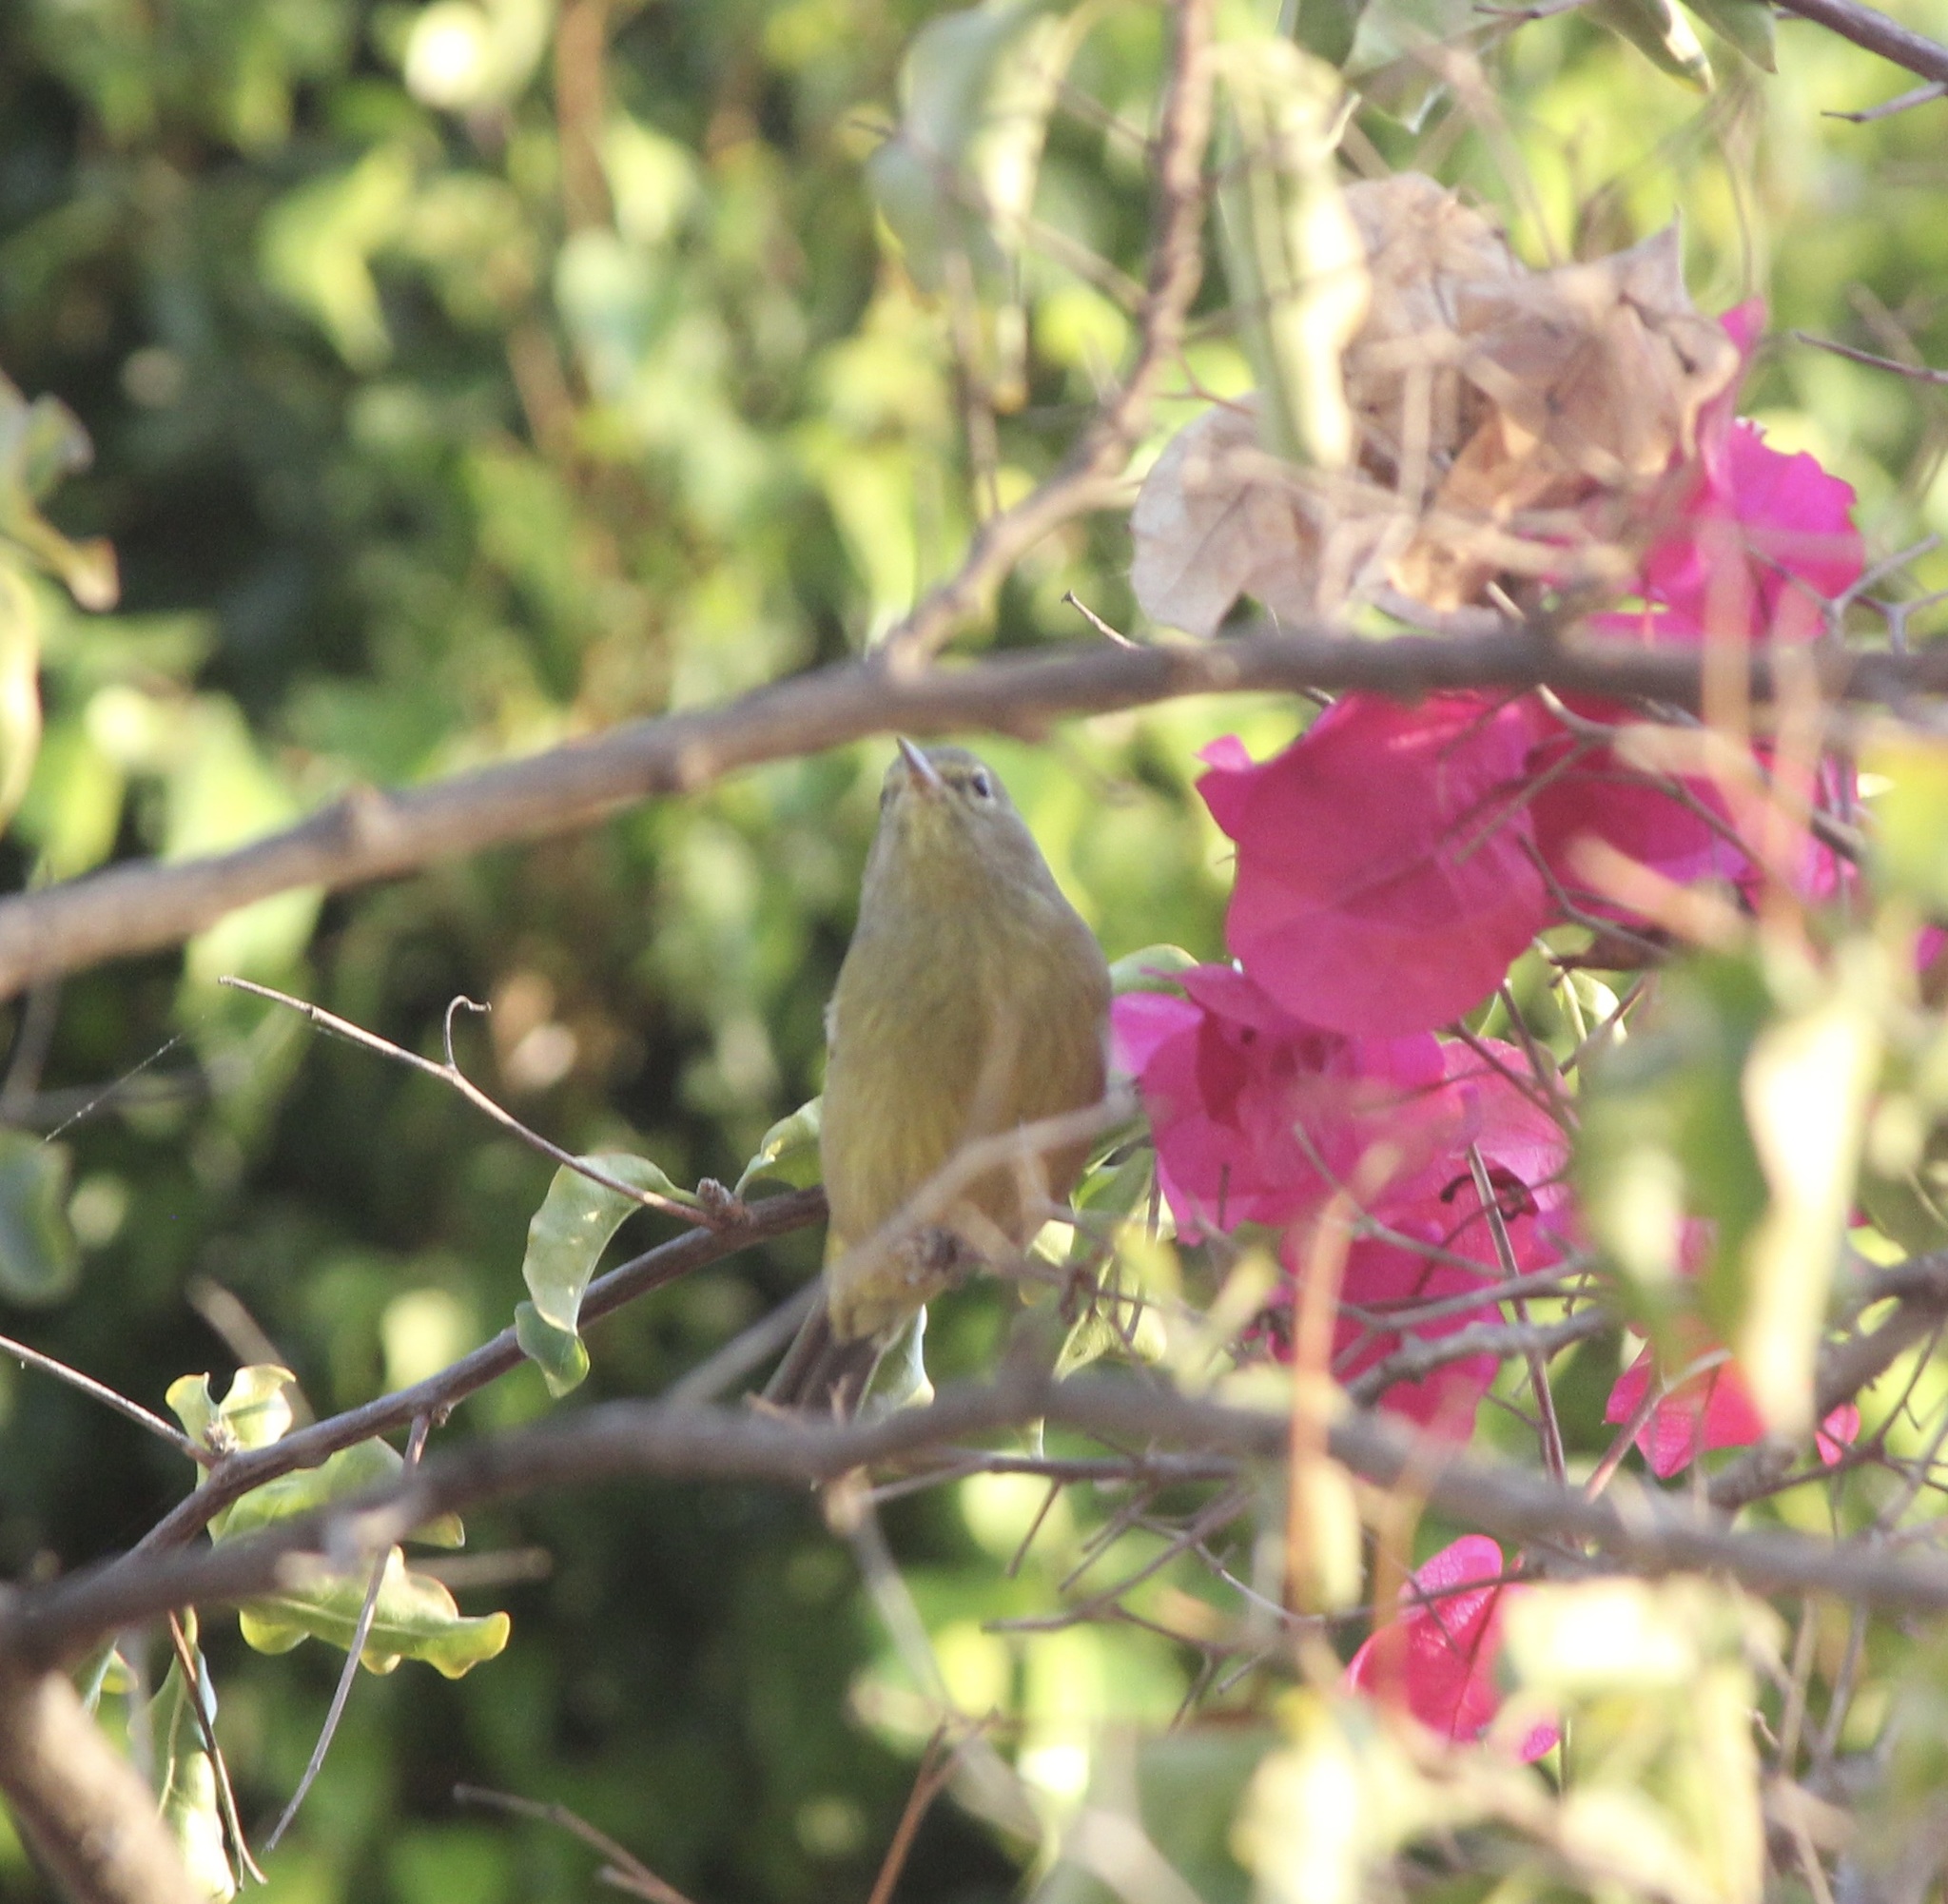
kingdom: Animalia
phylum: Chordata
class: Aves
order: Passeriformes
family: Parulidae
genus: Leiothlypis
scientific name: Leiothlypis celata
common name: Orange-crowned warbler
